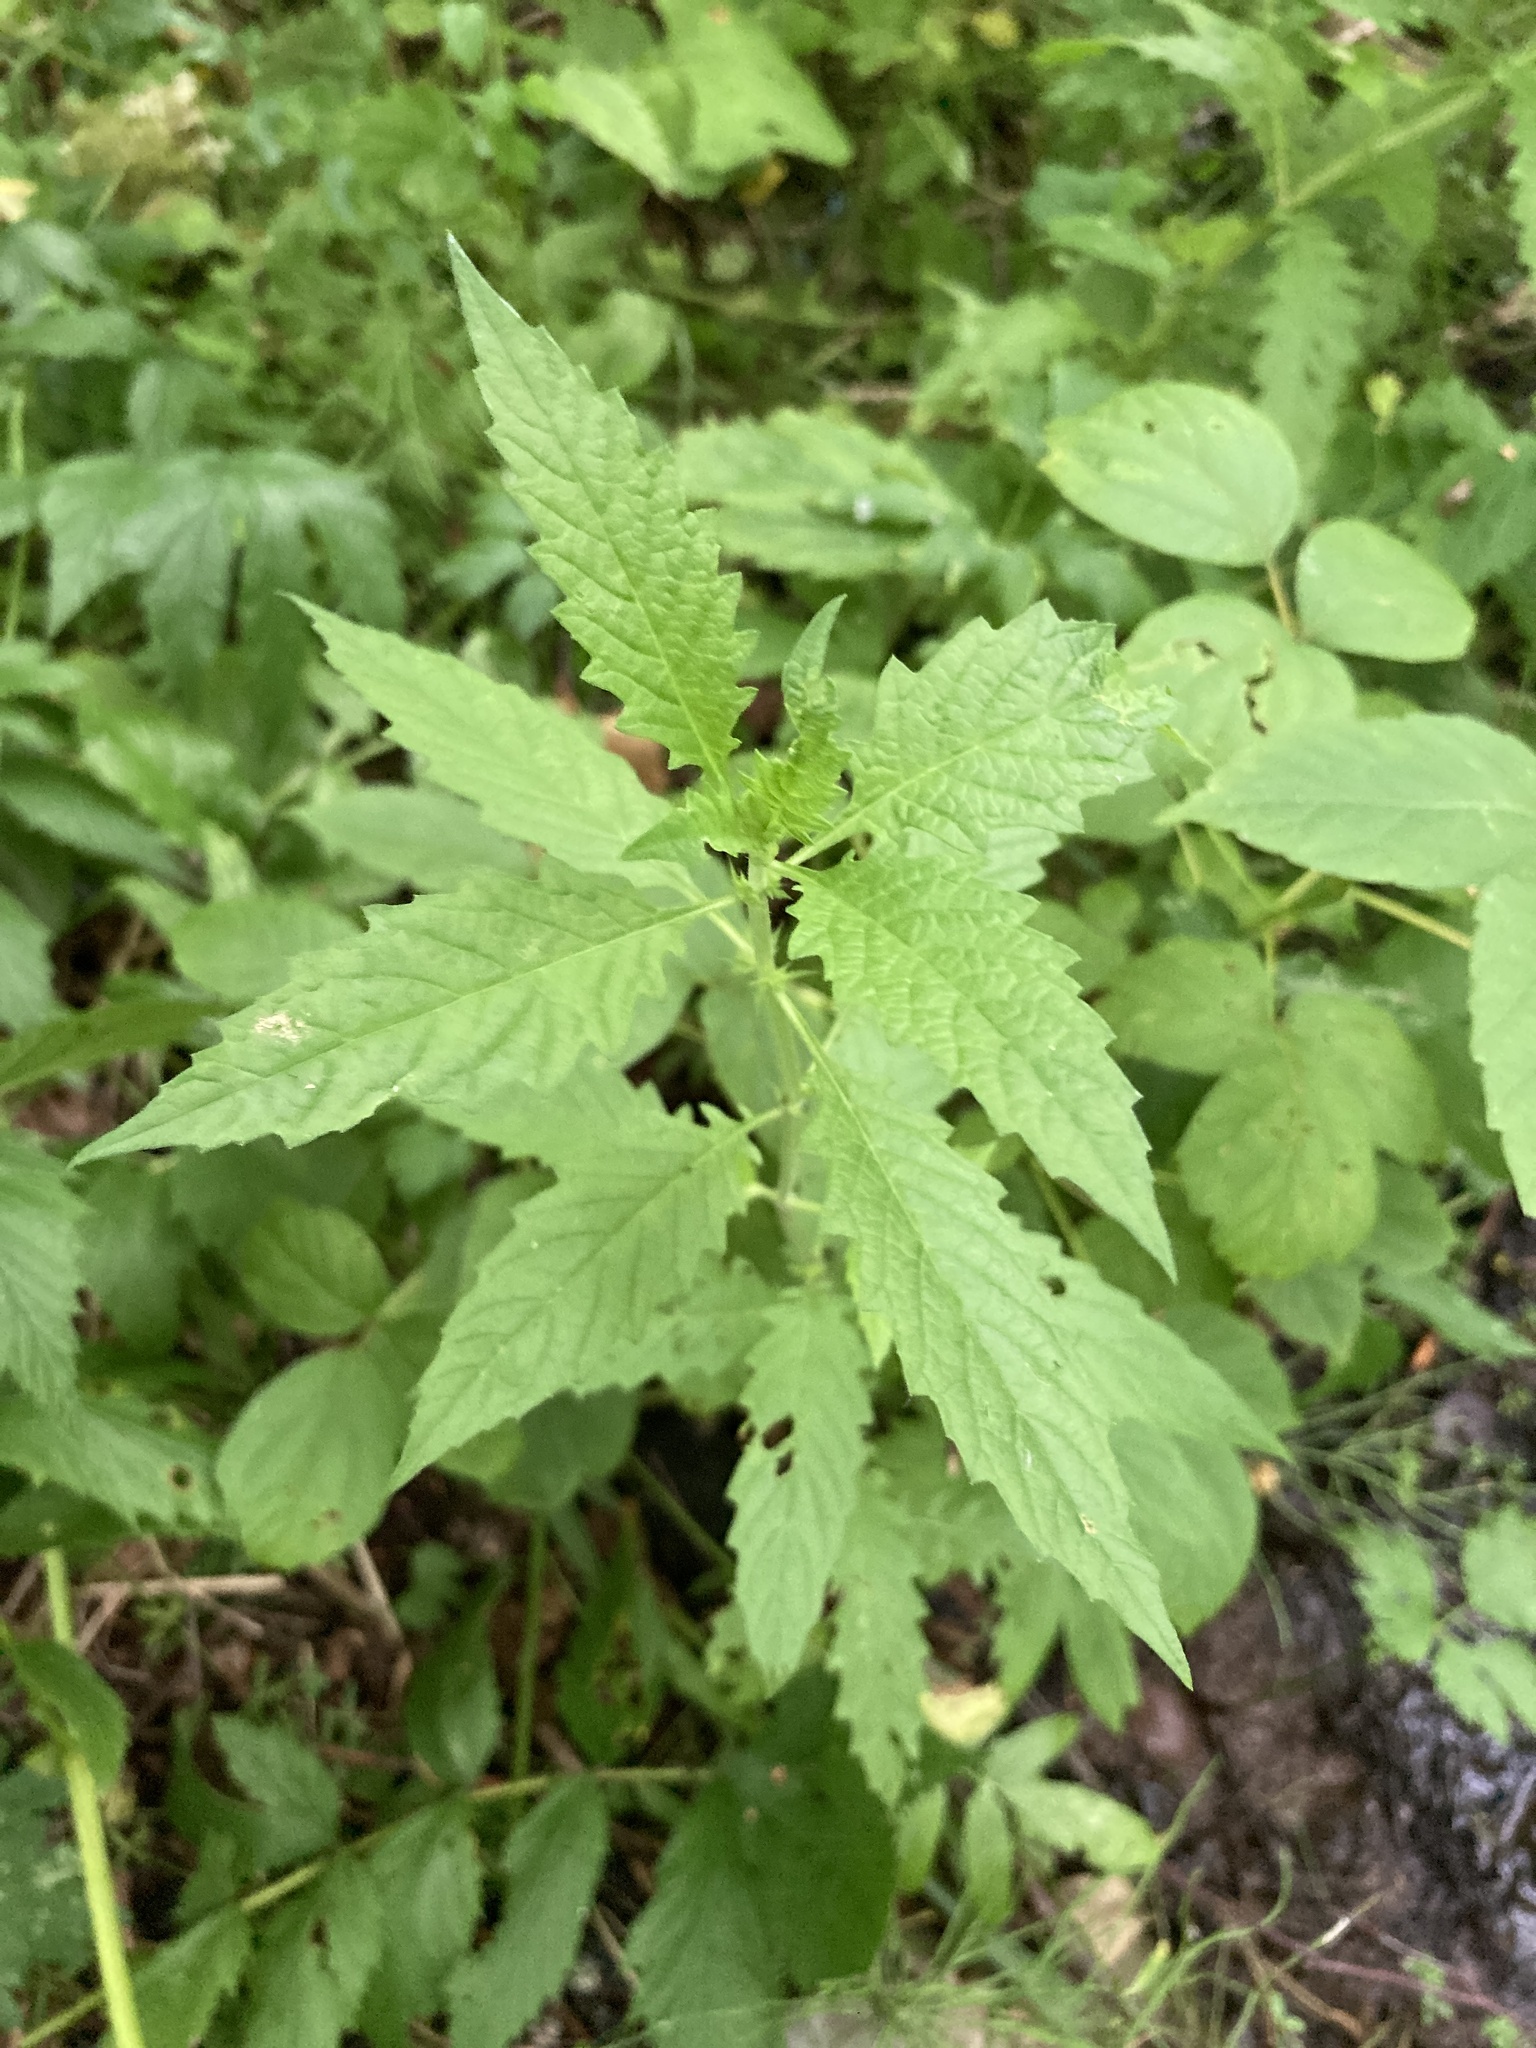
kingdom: Plantae
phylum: Tracheophyta
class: Magnoliopsida
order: Lamiales
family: Lamiaceae
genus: Lycopus
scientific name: Lycopus europaeus
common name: European bugleweed
